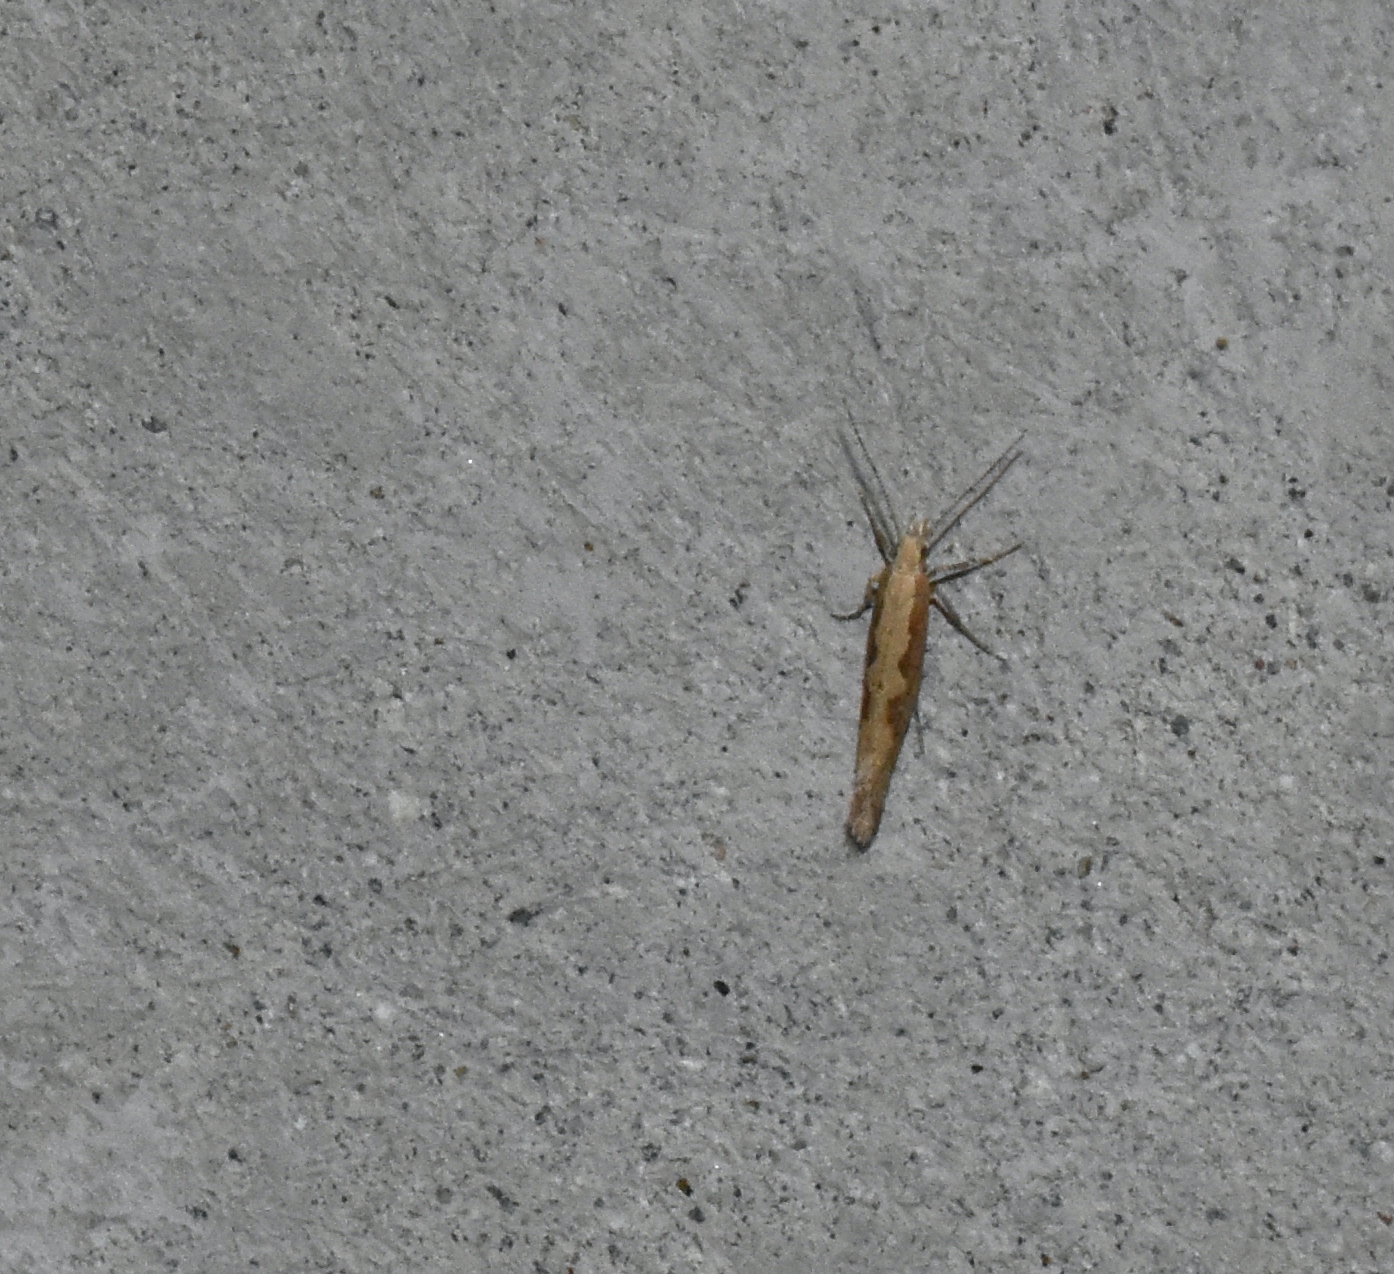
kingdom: Animalia
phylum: Arthropoda
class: Insecta
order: Lepidoptera
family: Plutellidae
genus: Plutella
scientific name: Plutella xylostella
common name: Diamond-back moth
